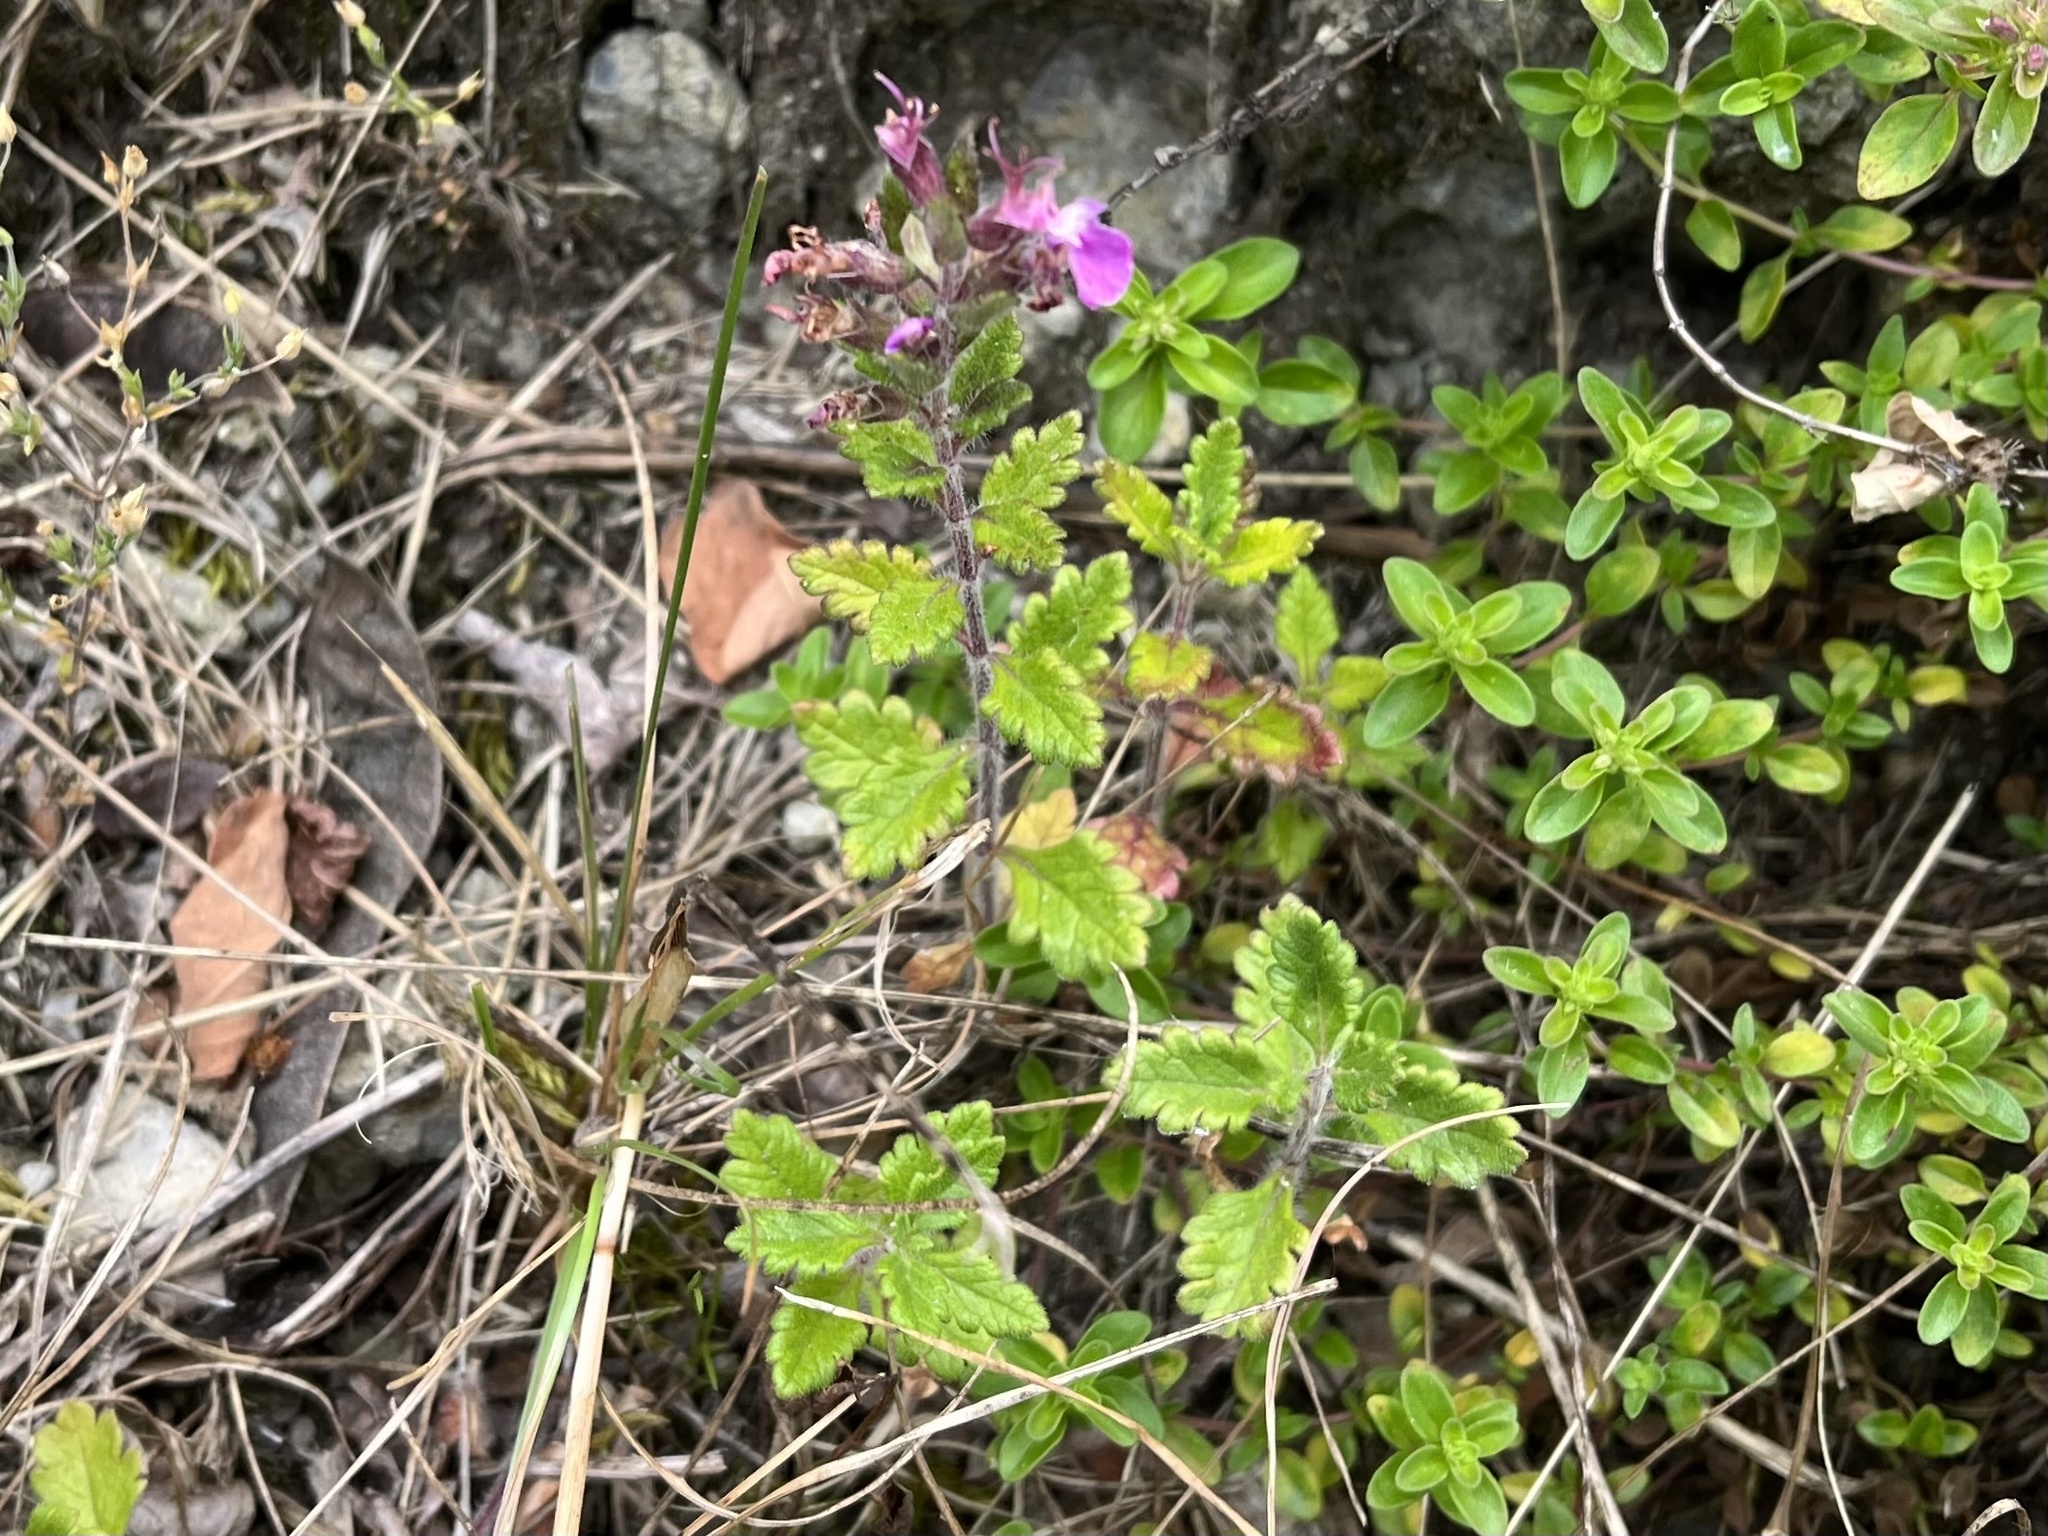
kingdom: Plantae
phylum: Tracheophyta
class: Magnoliopsida
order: Lamiales
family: Lamiaceae
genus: Teucrium
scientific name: Teucrium chamaedrys
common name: Wall germander
